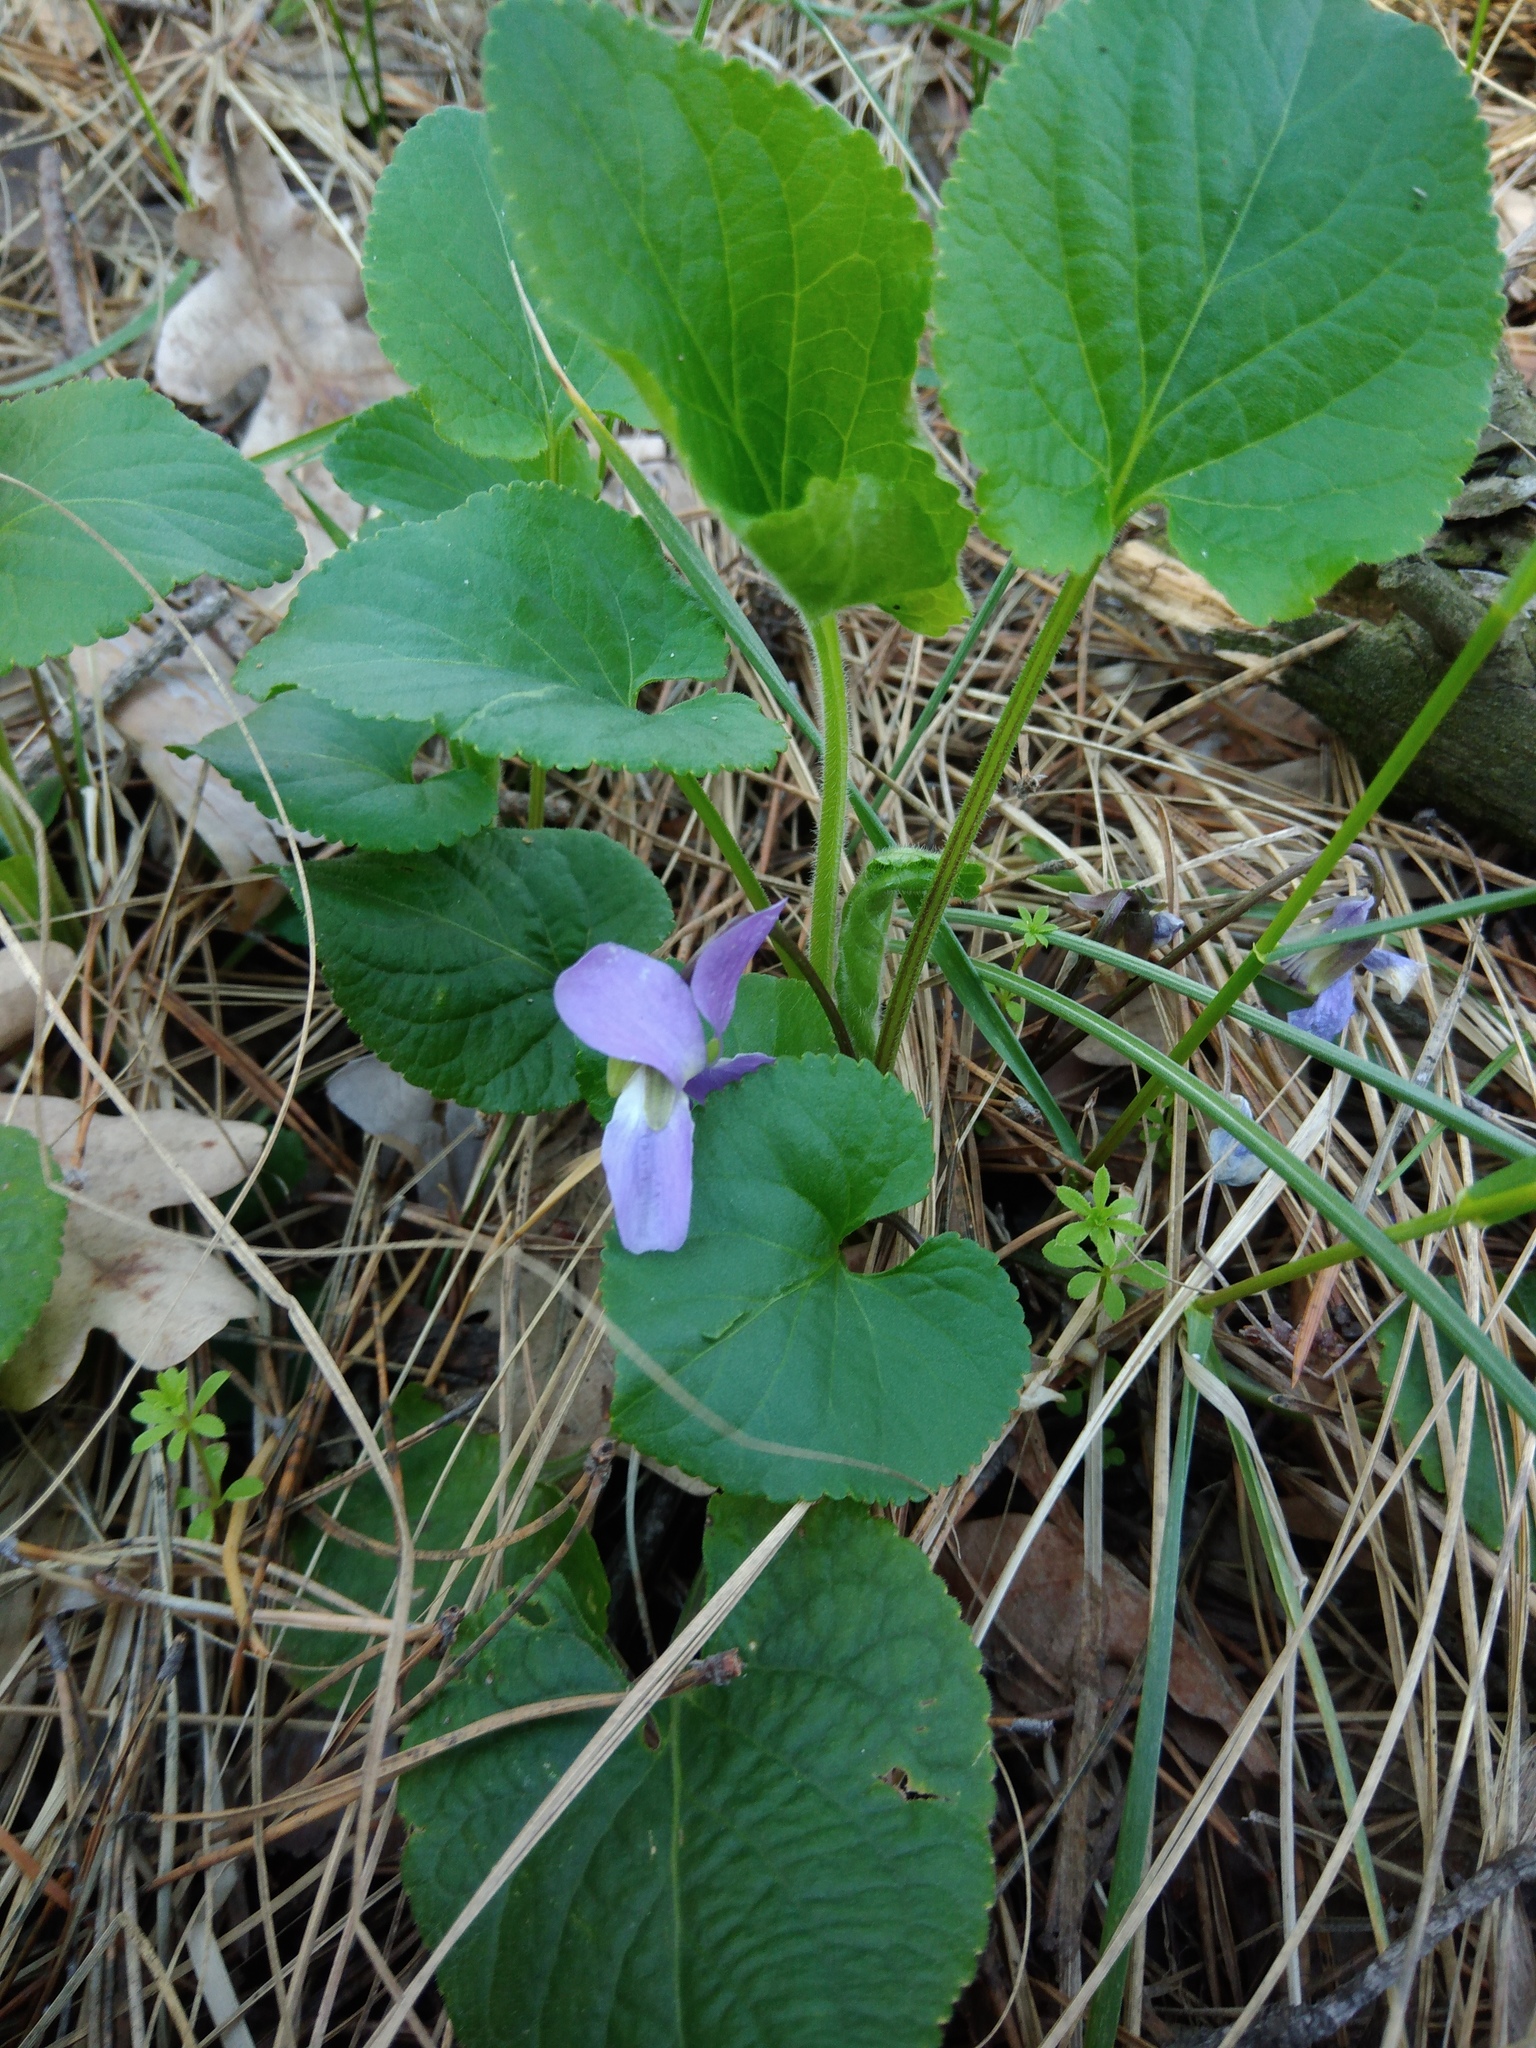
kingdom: Plantae
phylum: Tracheophyta
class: Magnoliopsida
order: Malpighiales
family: Violaceae
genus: Viola
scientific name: Viola hirta
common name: Hairy violet
